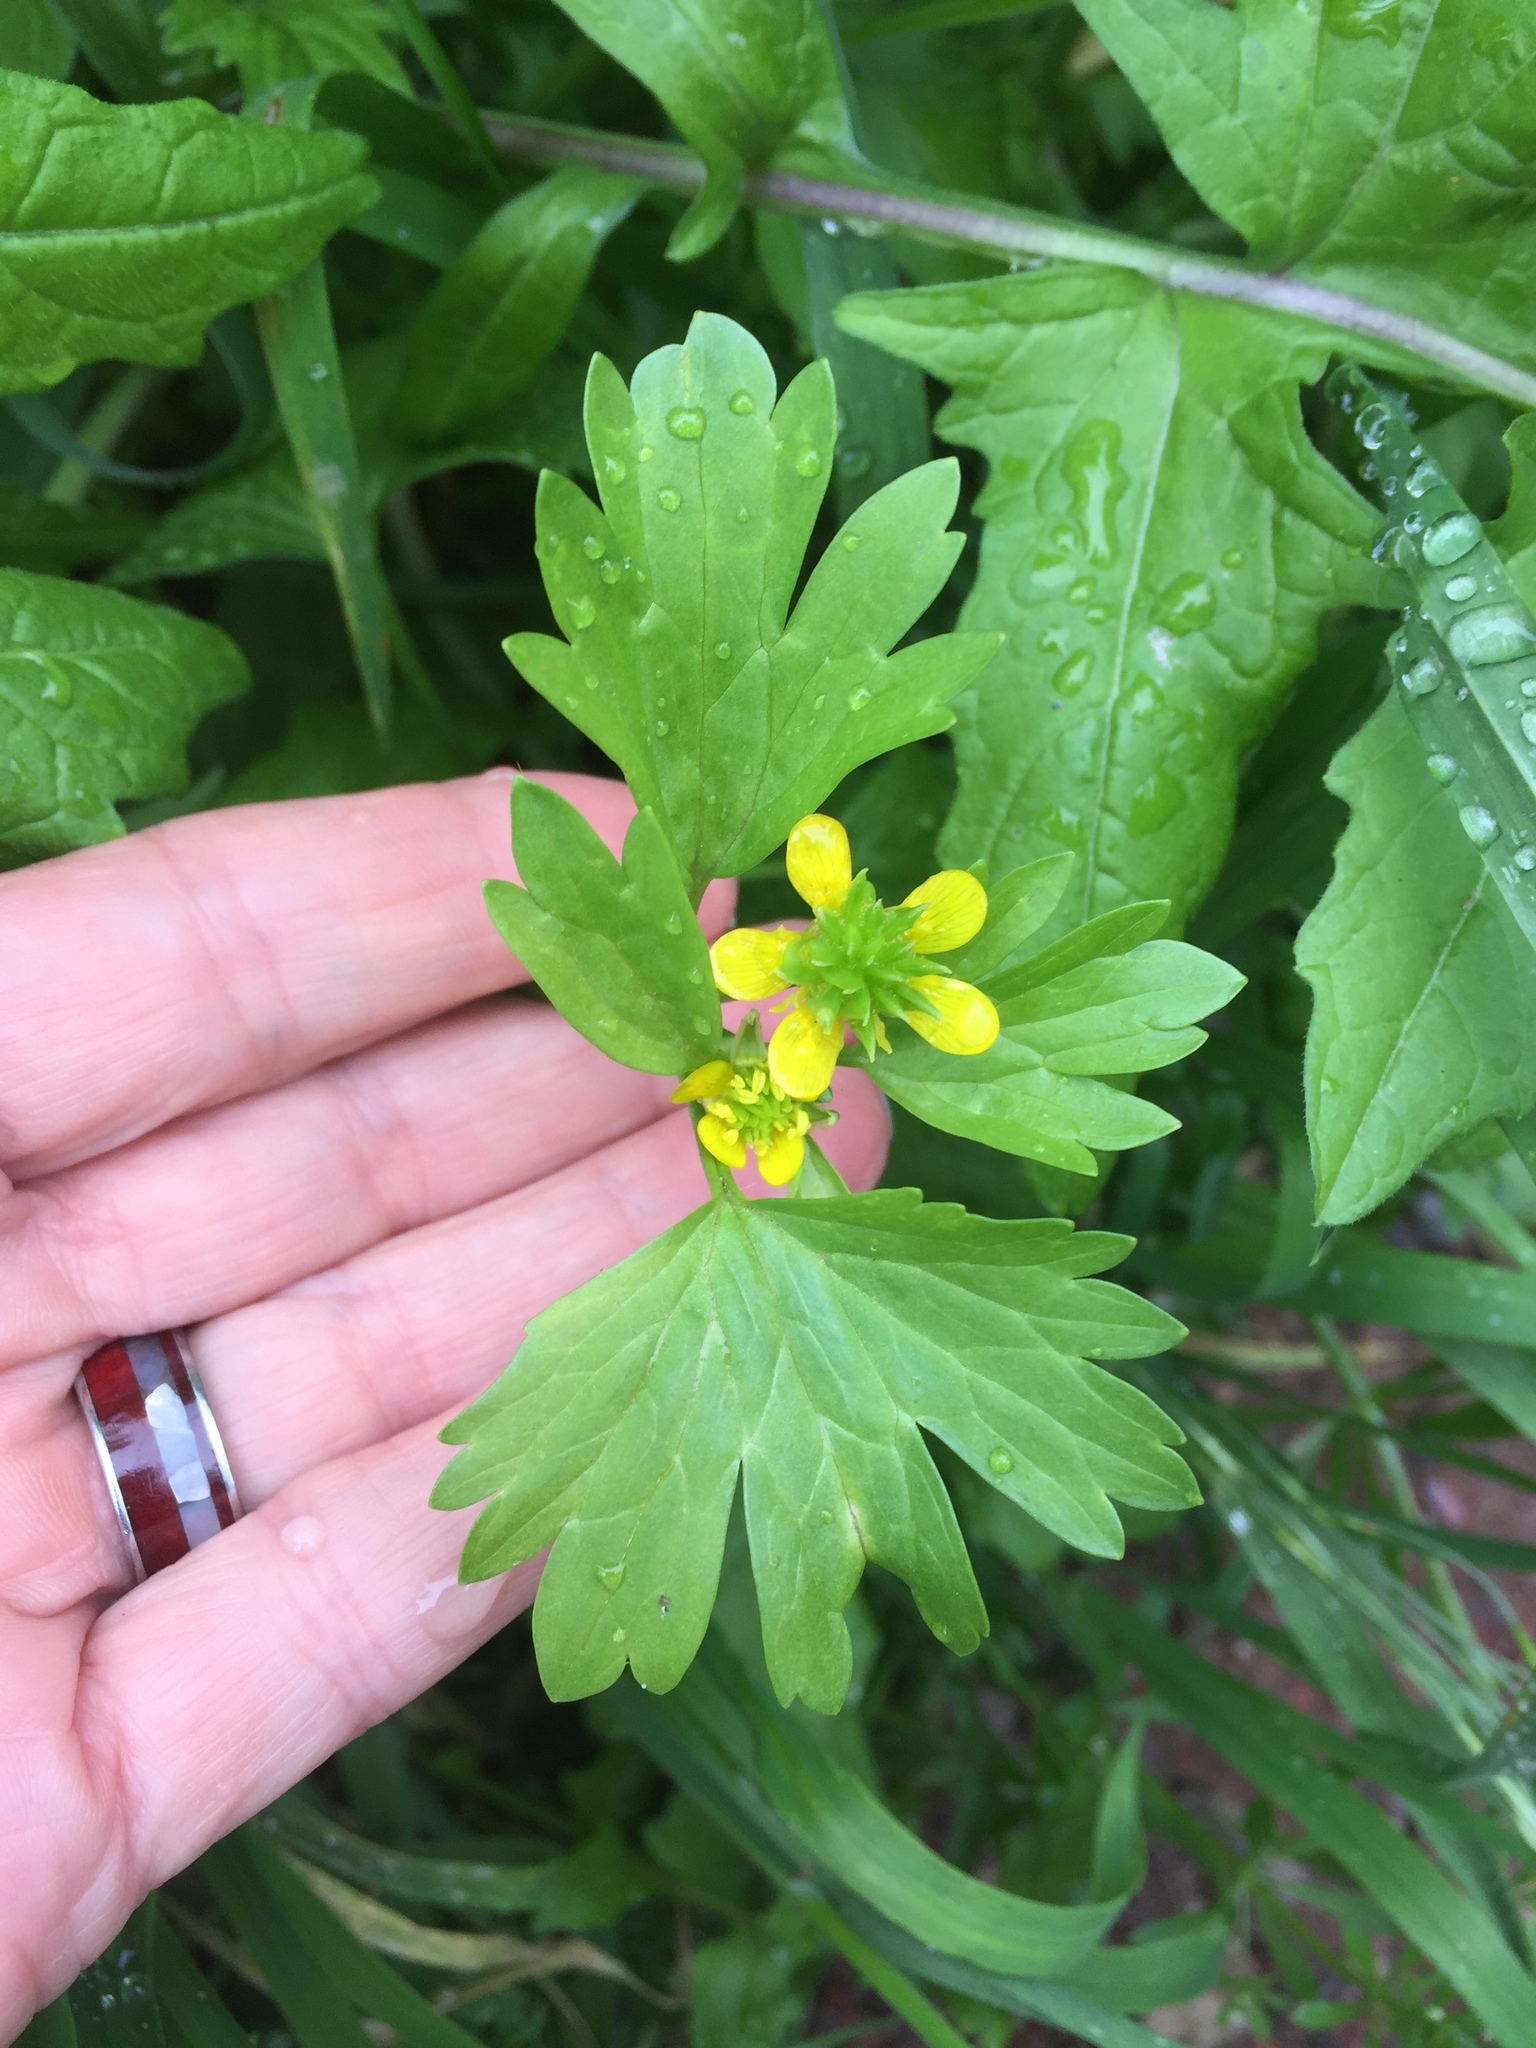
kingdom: Plantae
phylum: Tracheophyta
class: Magnoliopsida
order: Ranunculales
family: Ranunculaceae
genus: Ranunculus
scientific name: Ranunculus muricatus
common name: Rough-fruited buttercup
